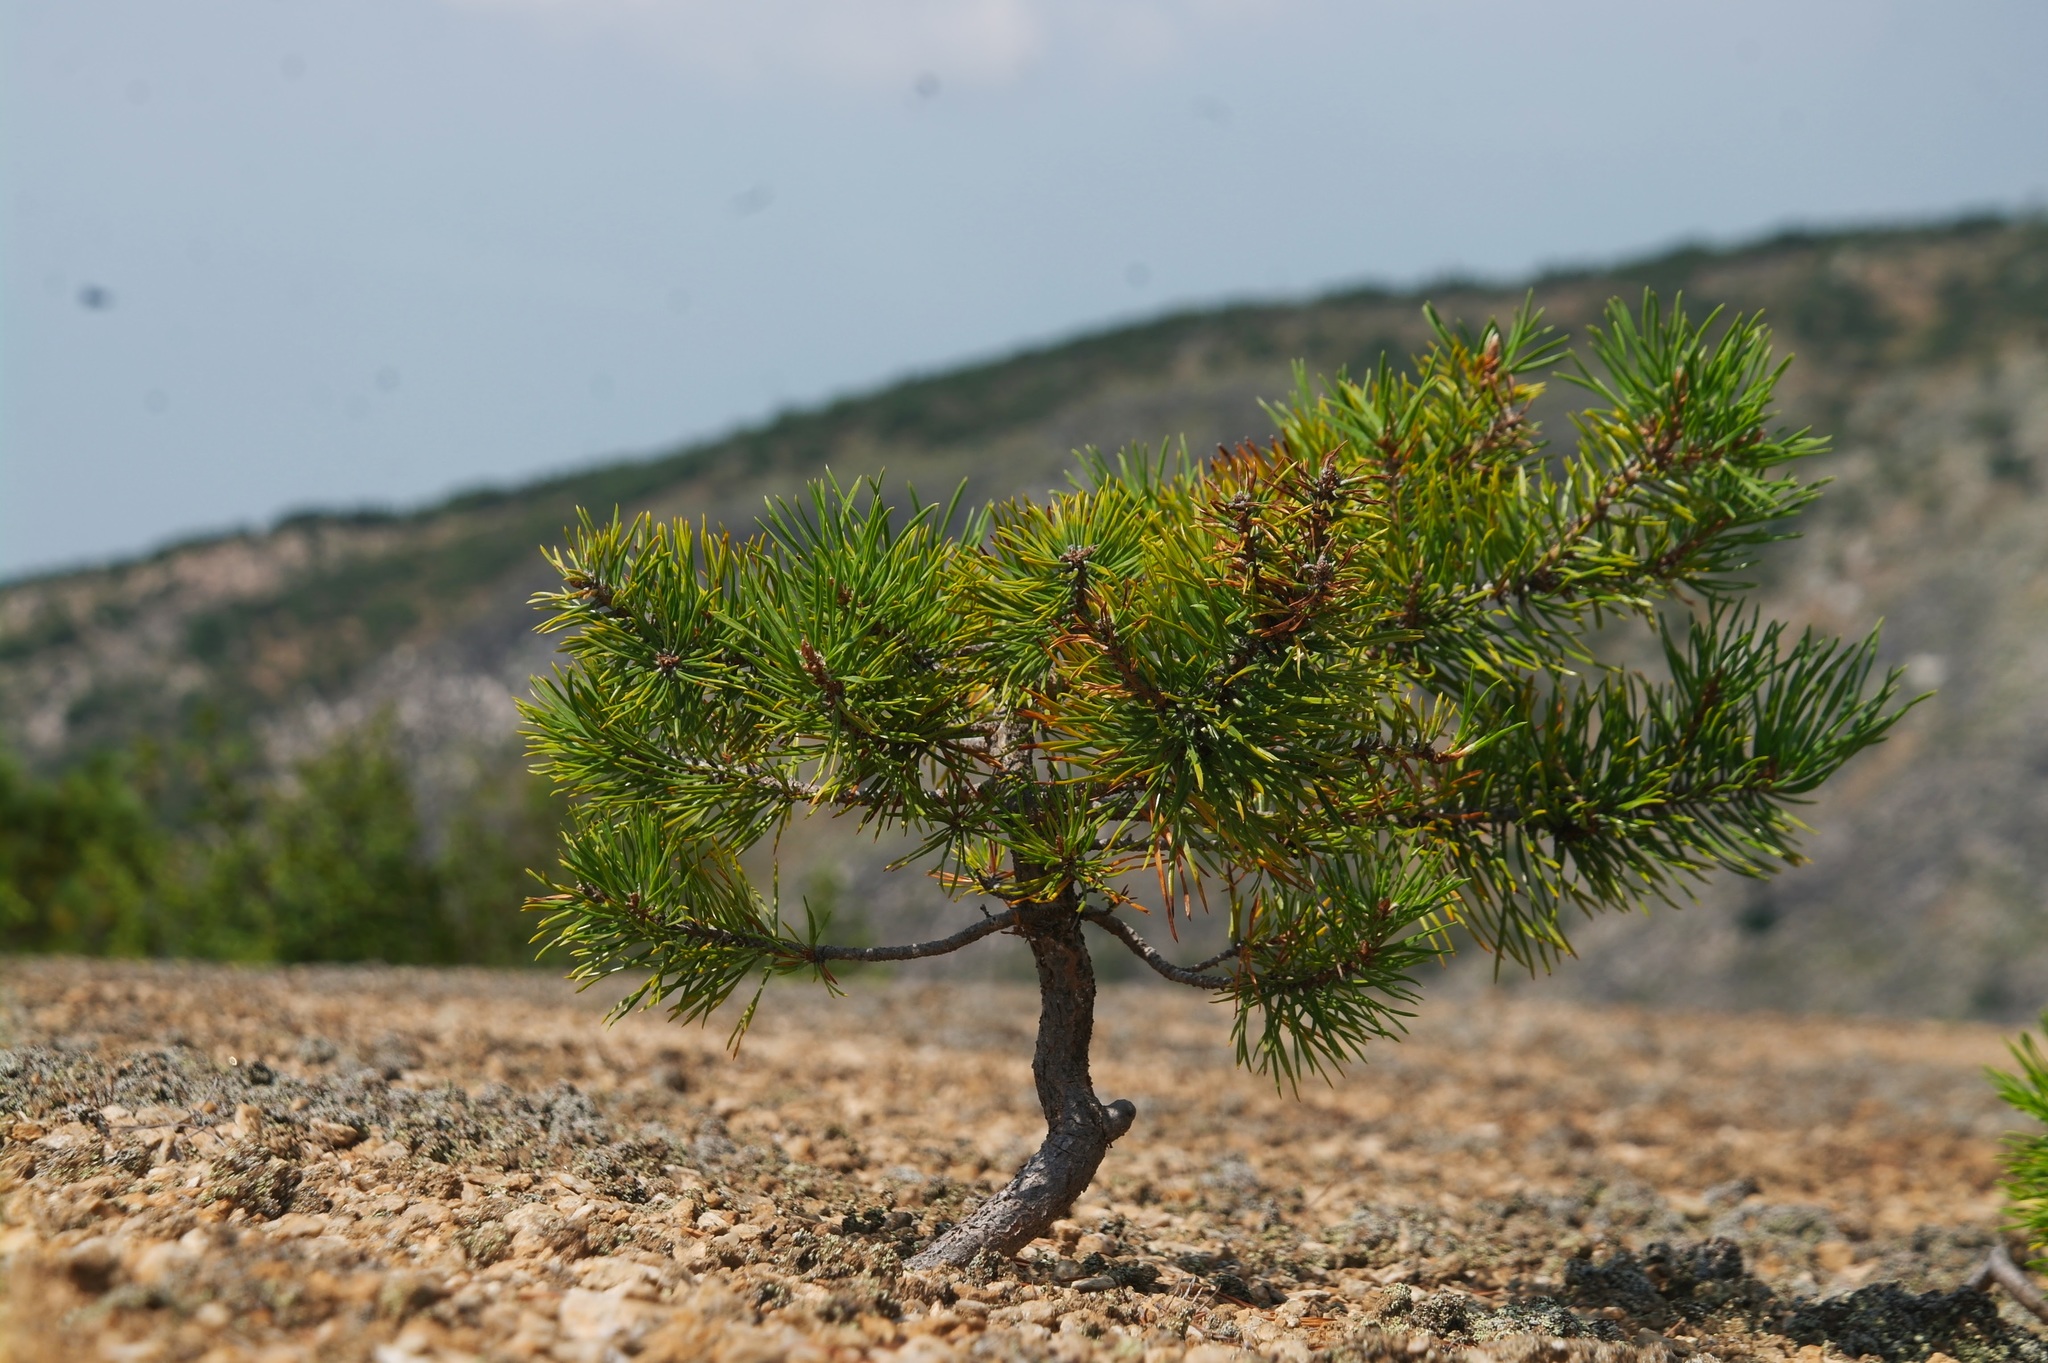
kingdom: Plantae
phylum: Tracheophyta
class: Pinopsida
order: Pinales
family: Pinaceae
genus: Pinus
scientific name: Pinus sylvestris
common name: Scots pine
